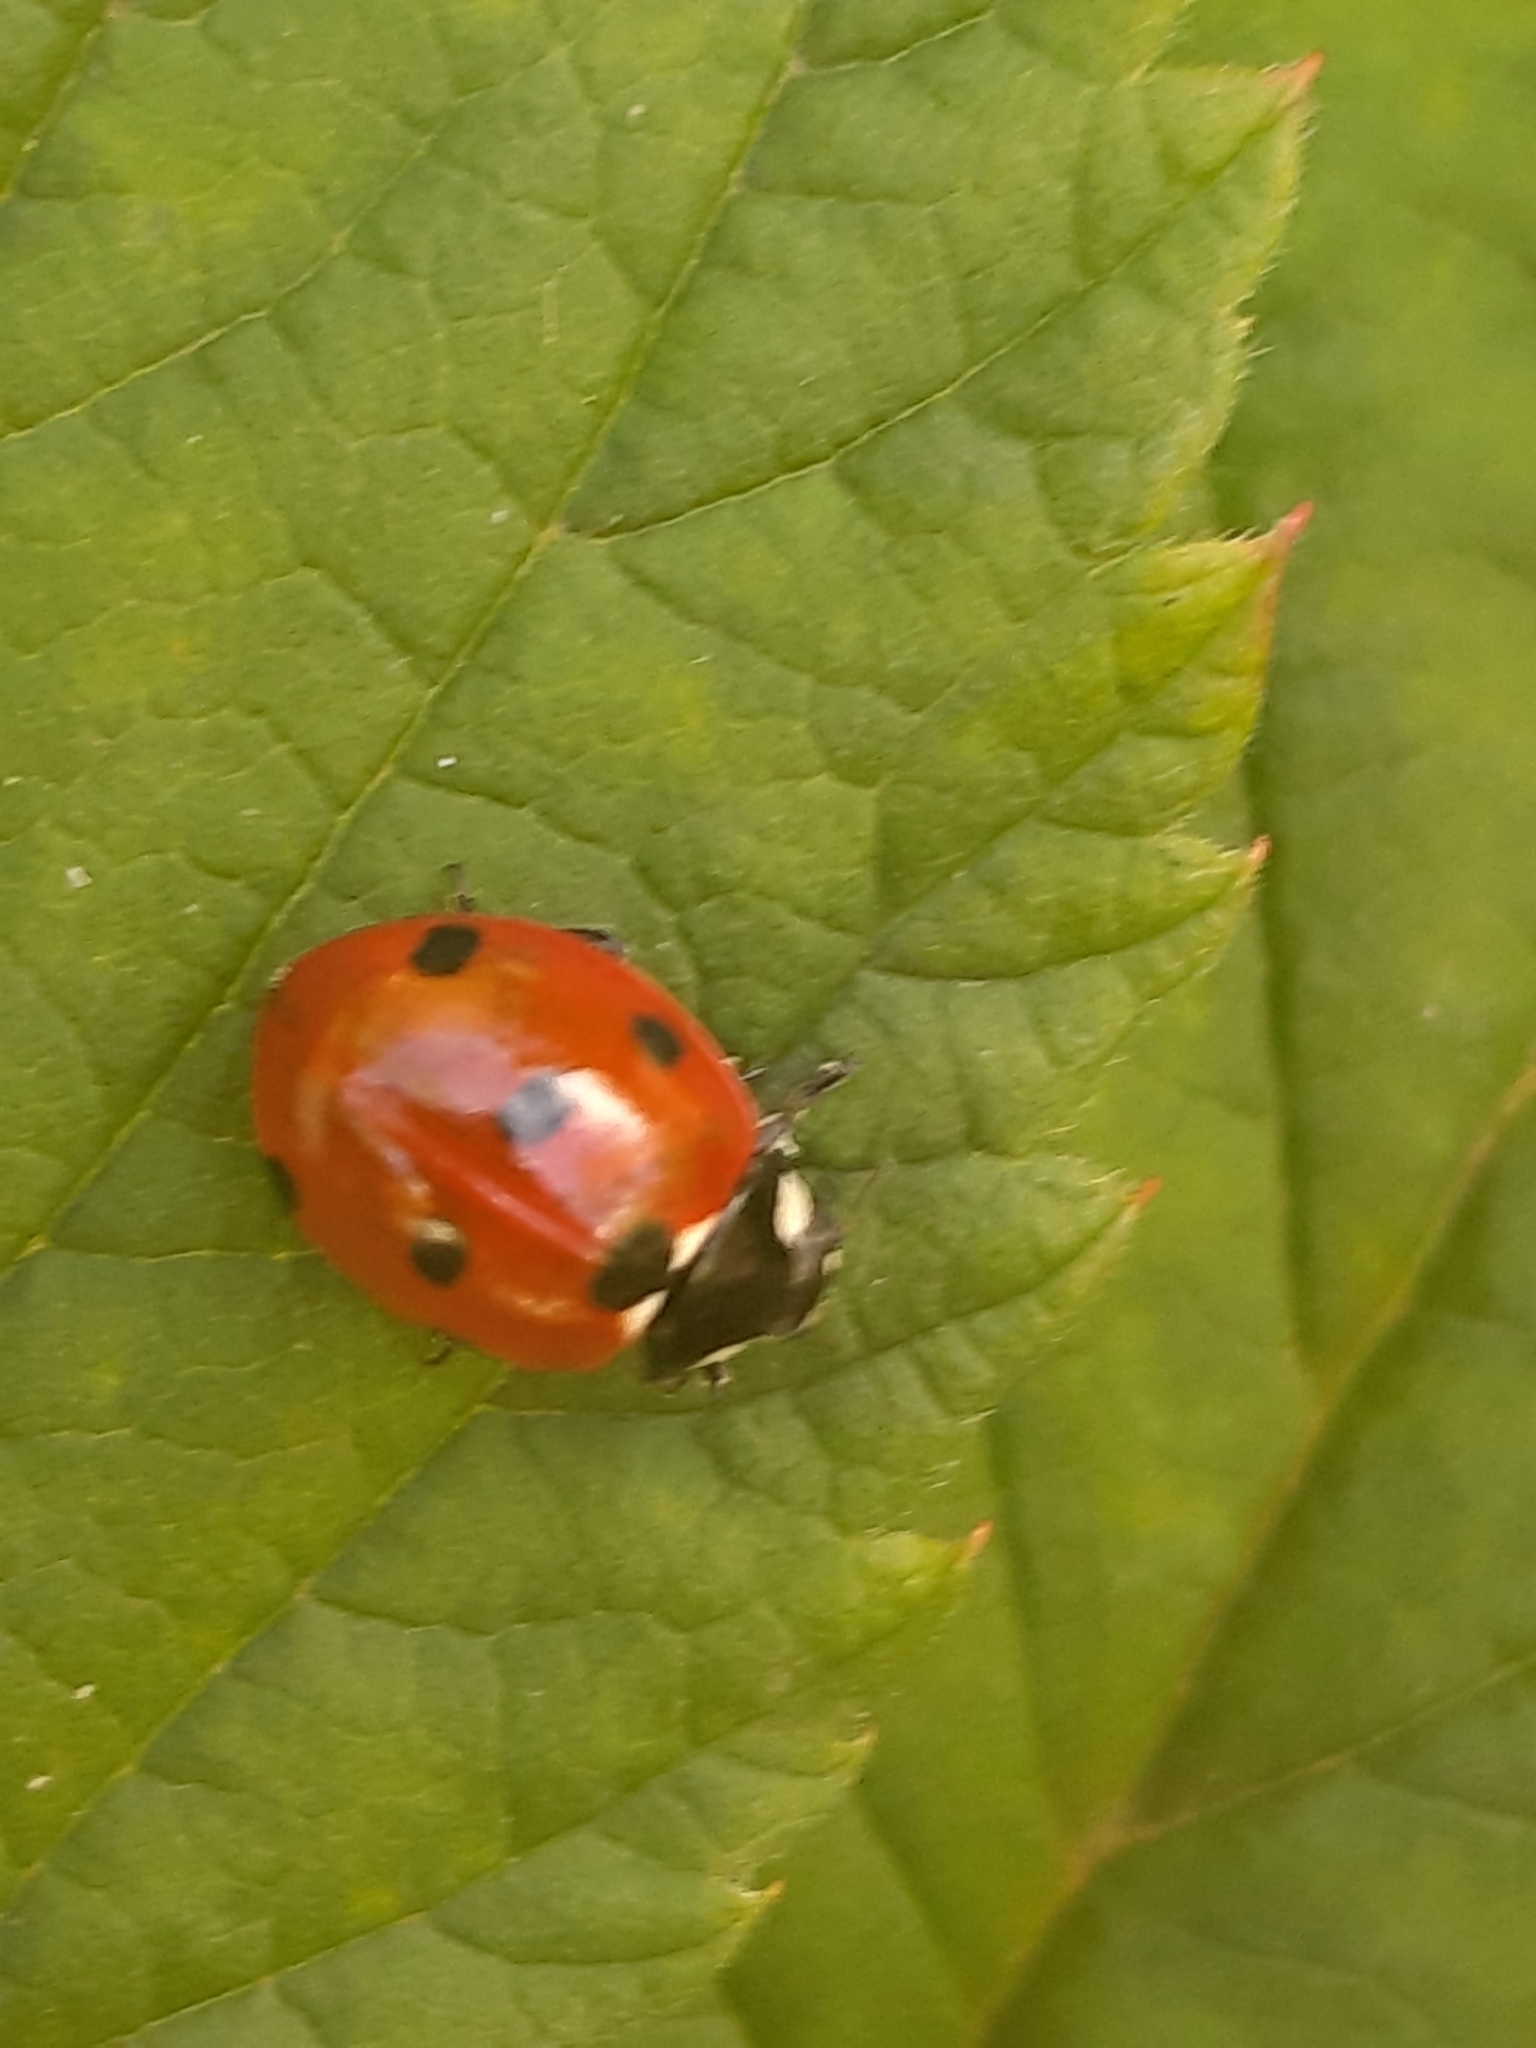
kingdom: Animalia
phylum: Arthropoda
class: Insecta
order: Coleoptera
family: Coccinellidae
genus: Coccinella
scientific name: Coccinella septempunctata
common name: Sevenspotted lady beetle
